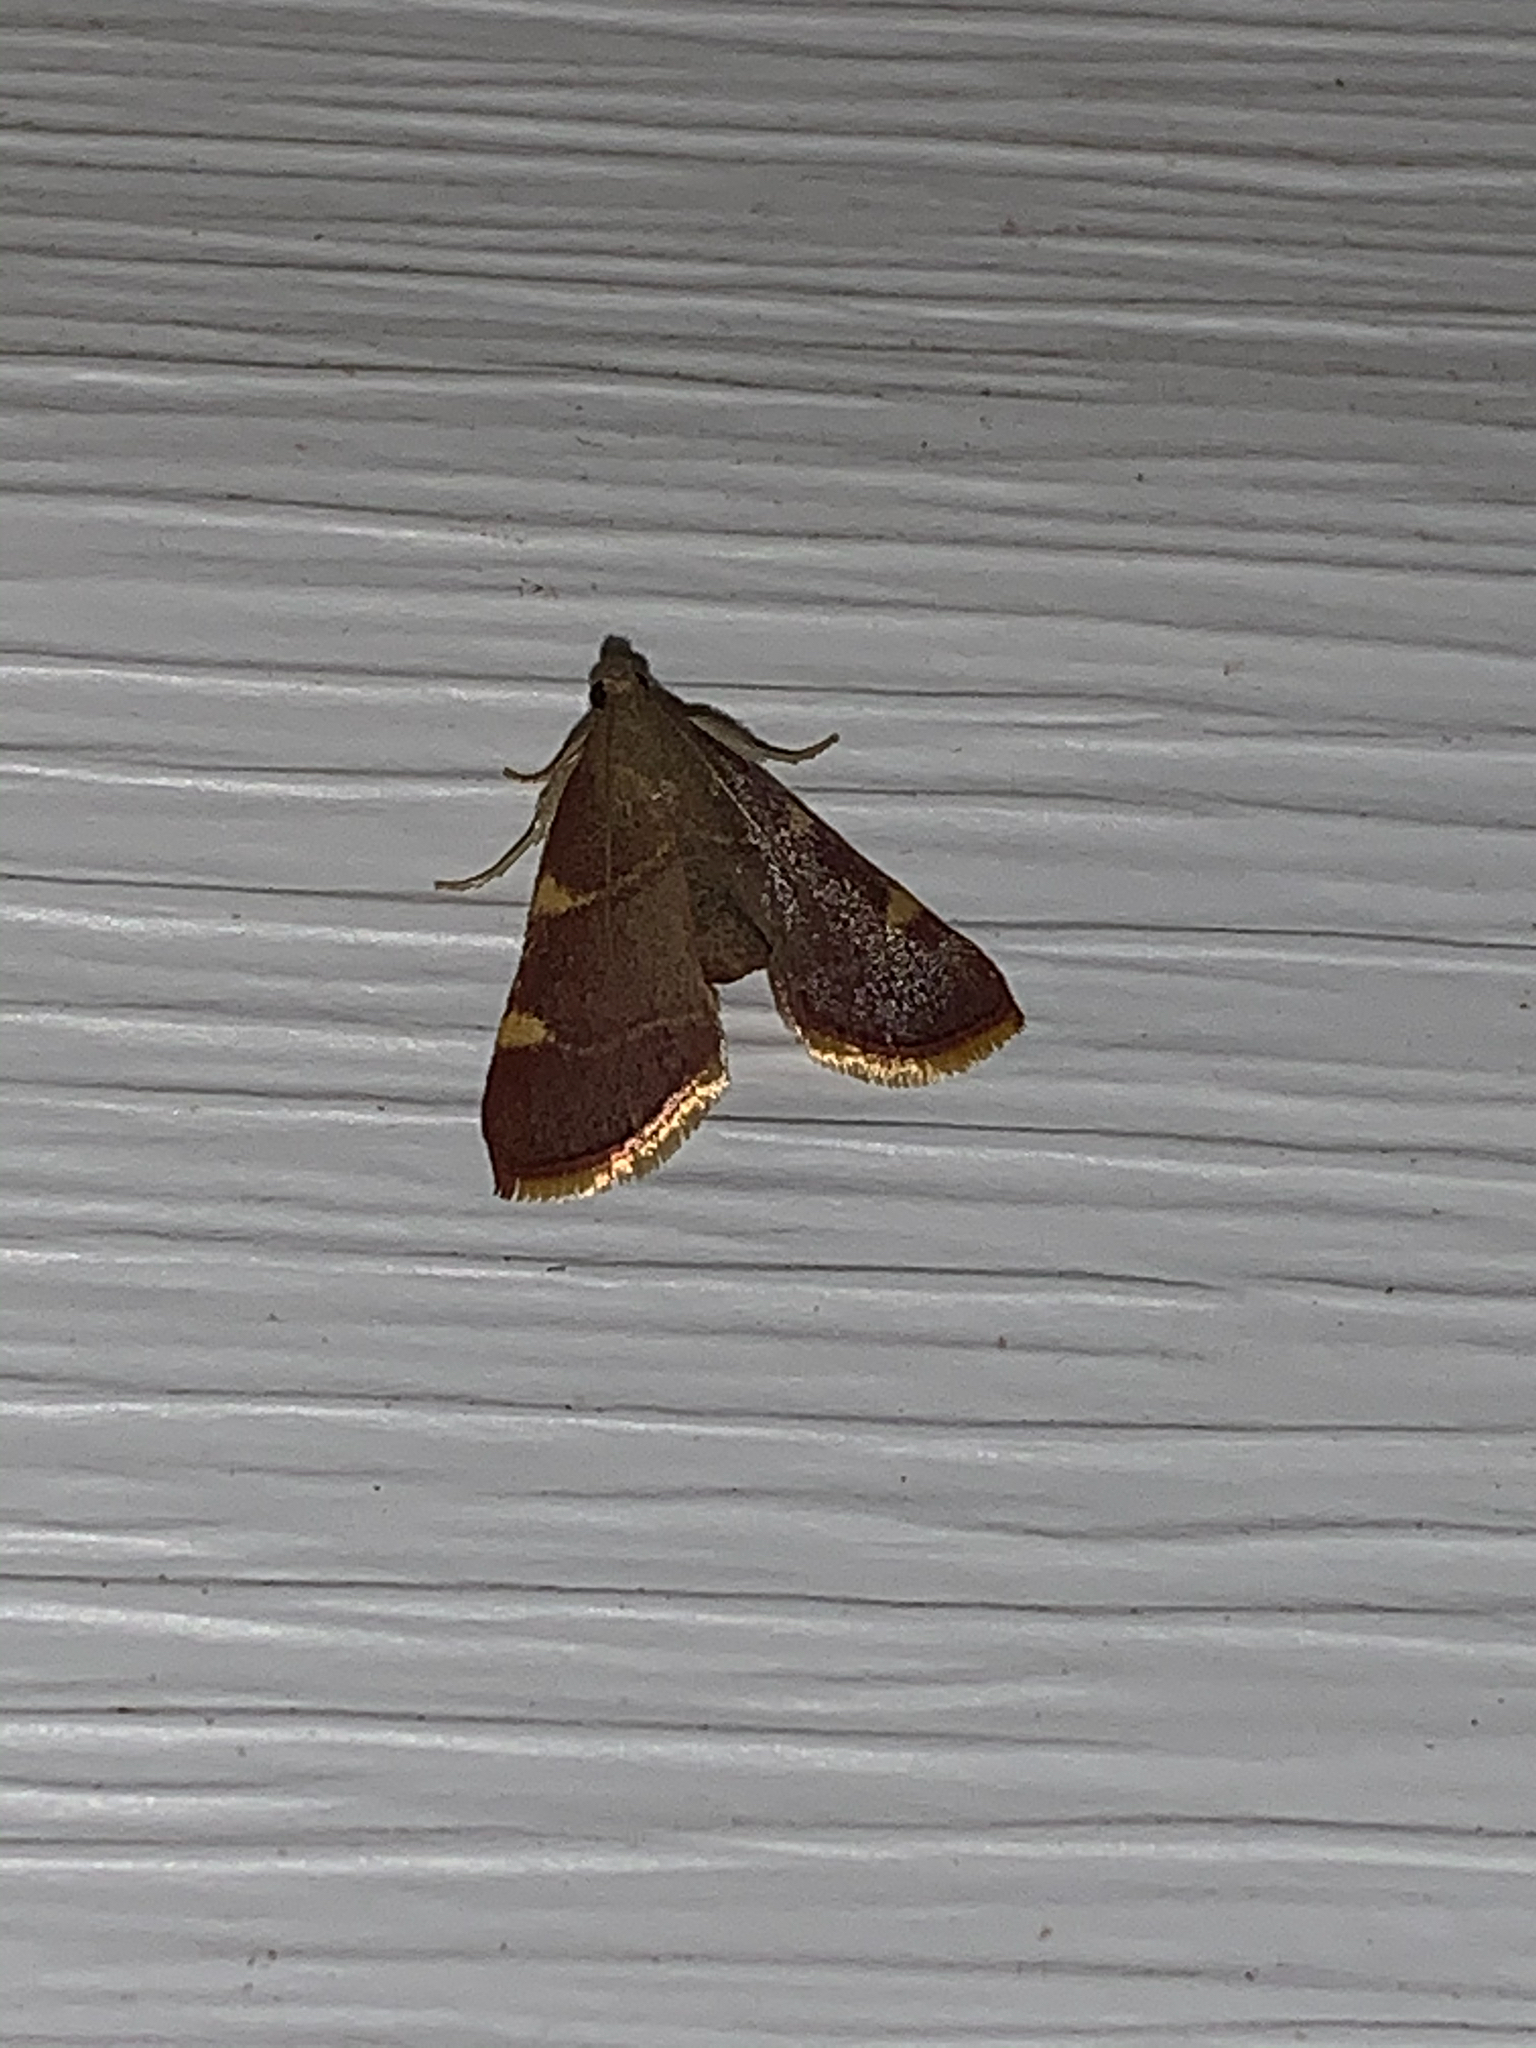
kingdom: Animalia
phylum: Arthropoda
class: Insecta
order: Lepidoptera
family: Pyralidae
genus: Hypsopygia
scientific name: Hypsopygia olinalis
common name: Yellow-fringed dolichomia moth
